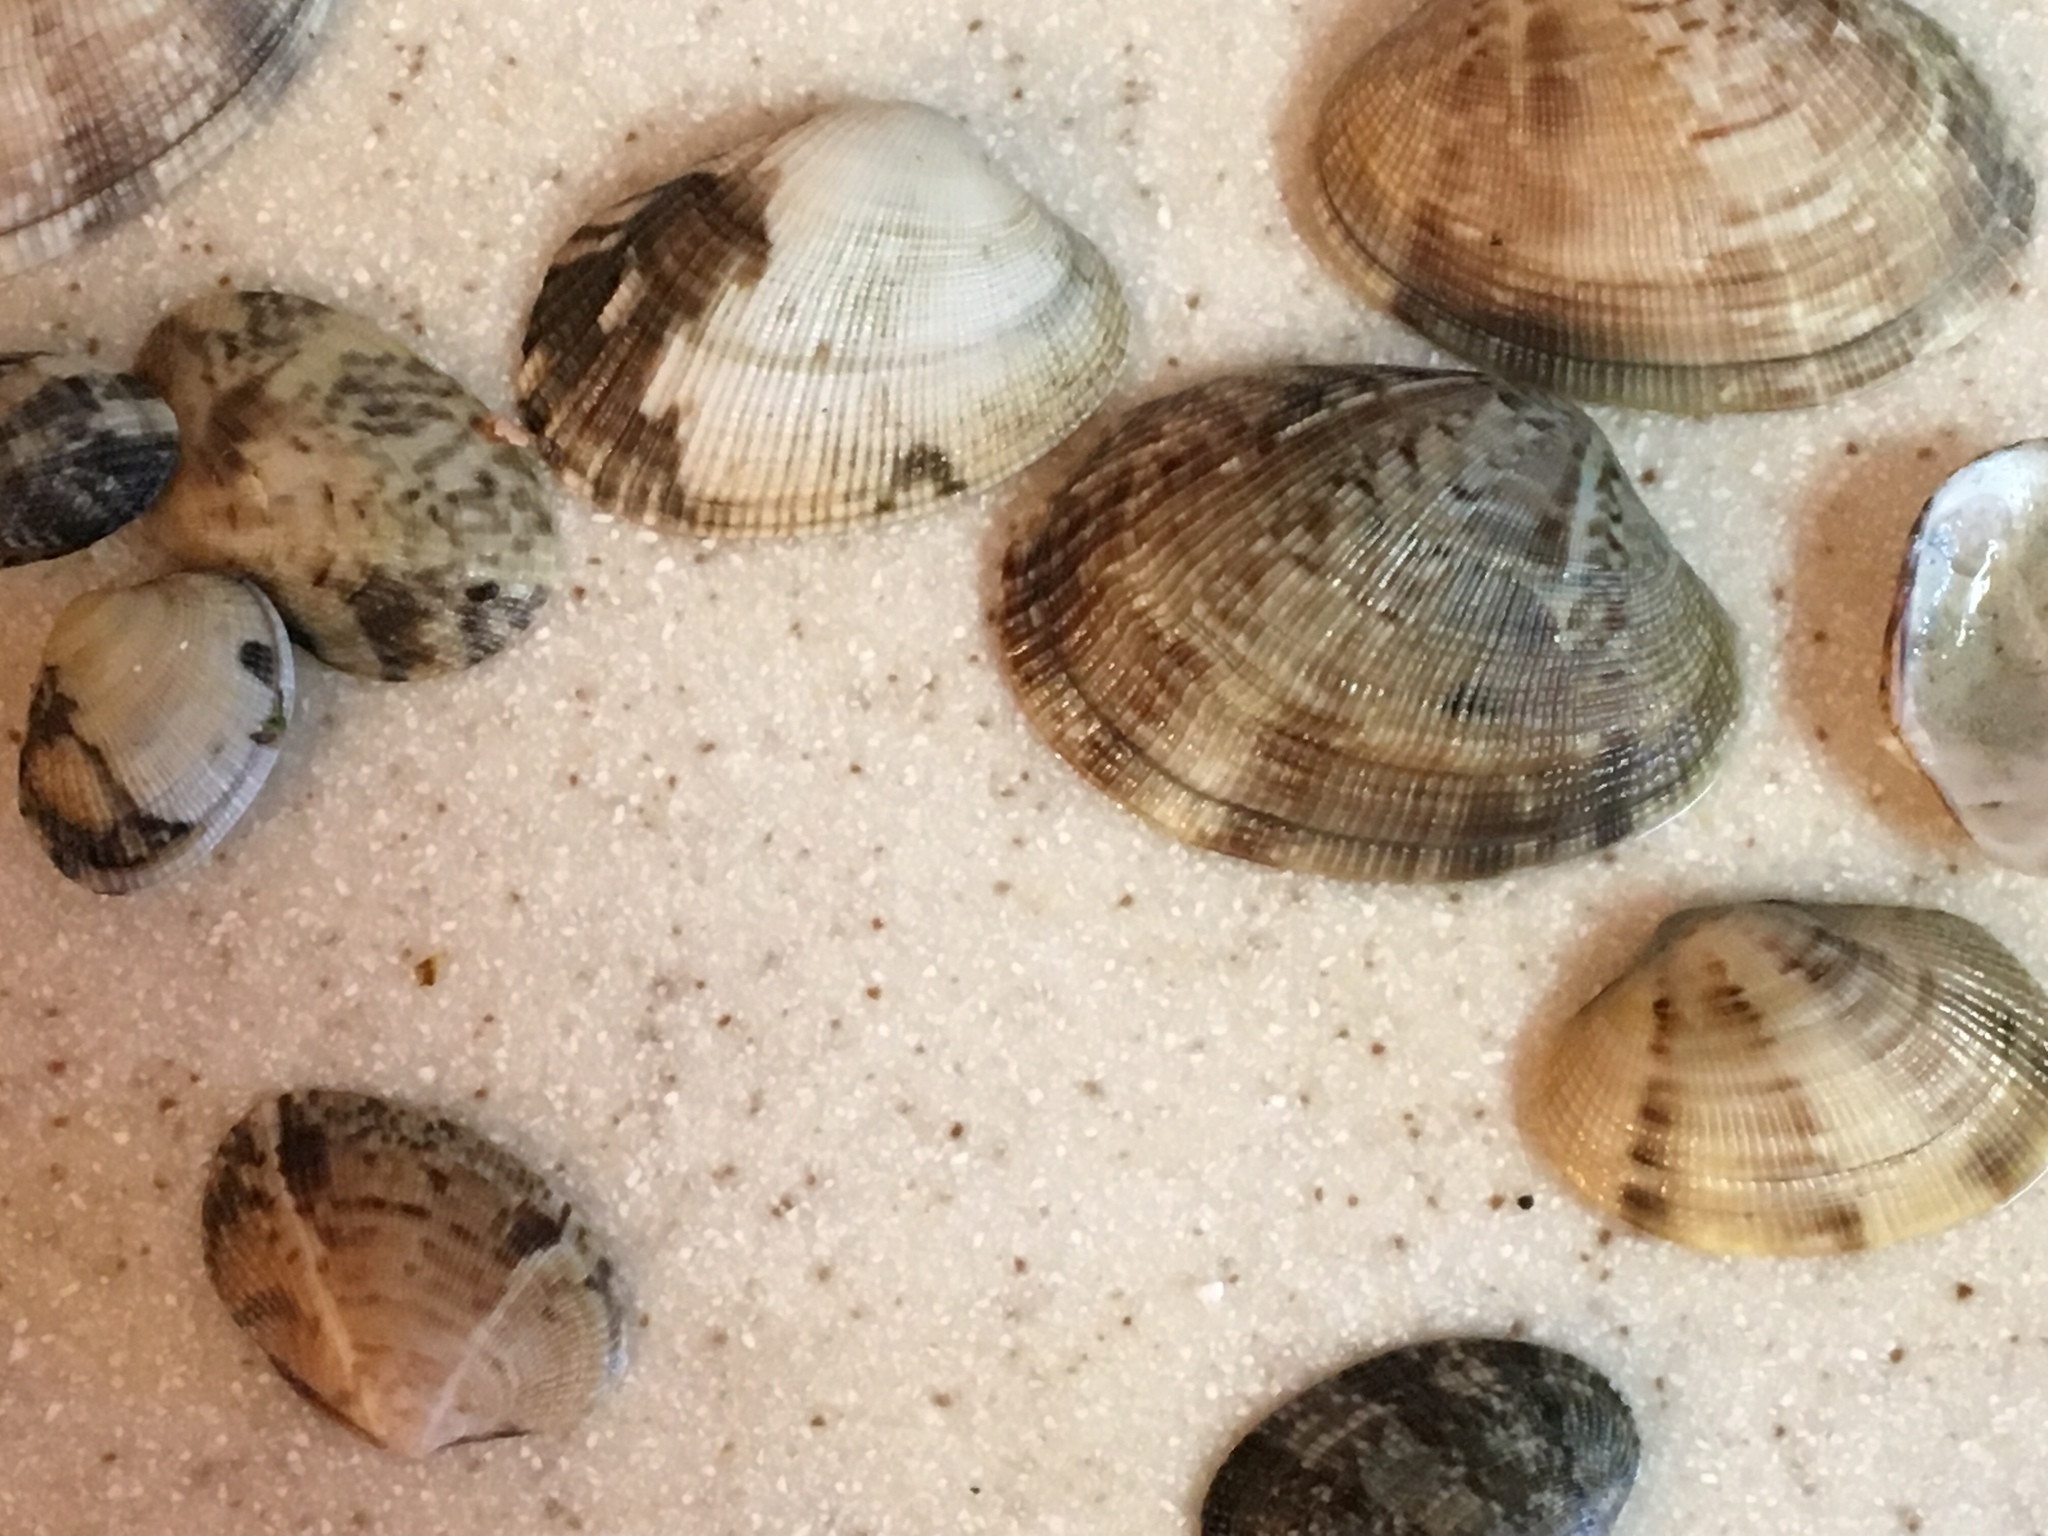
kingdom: Animalia
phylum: Mollusca
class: Bivalvia
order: Venerida
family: Veneridae
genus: Ruditapes
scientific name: Ruditapes philippinarum
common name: Manila clam
